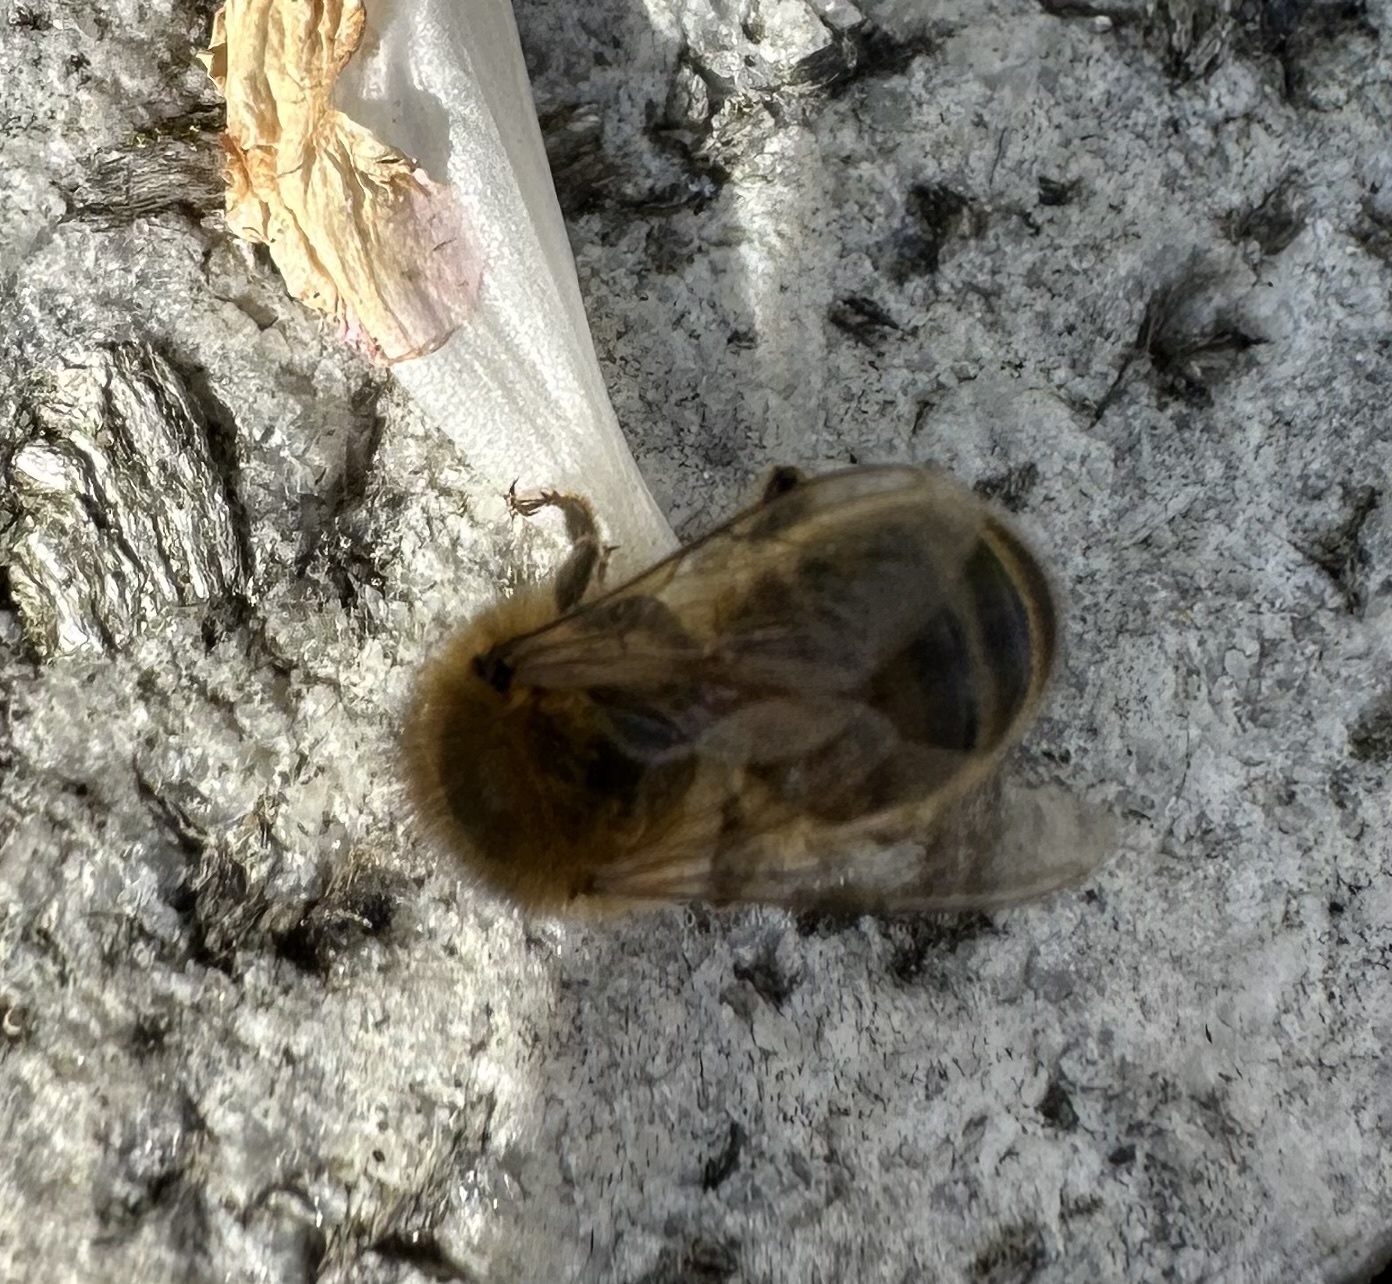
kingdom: Animalia
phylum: Arthropoda
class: Insecta
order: Hymenoptera
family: Apidae
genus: Apis
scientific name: Apis mellifera
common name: Honey bee
